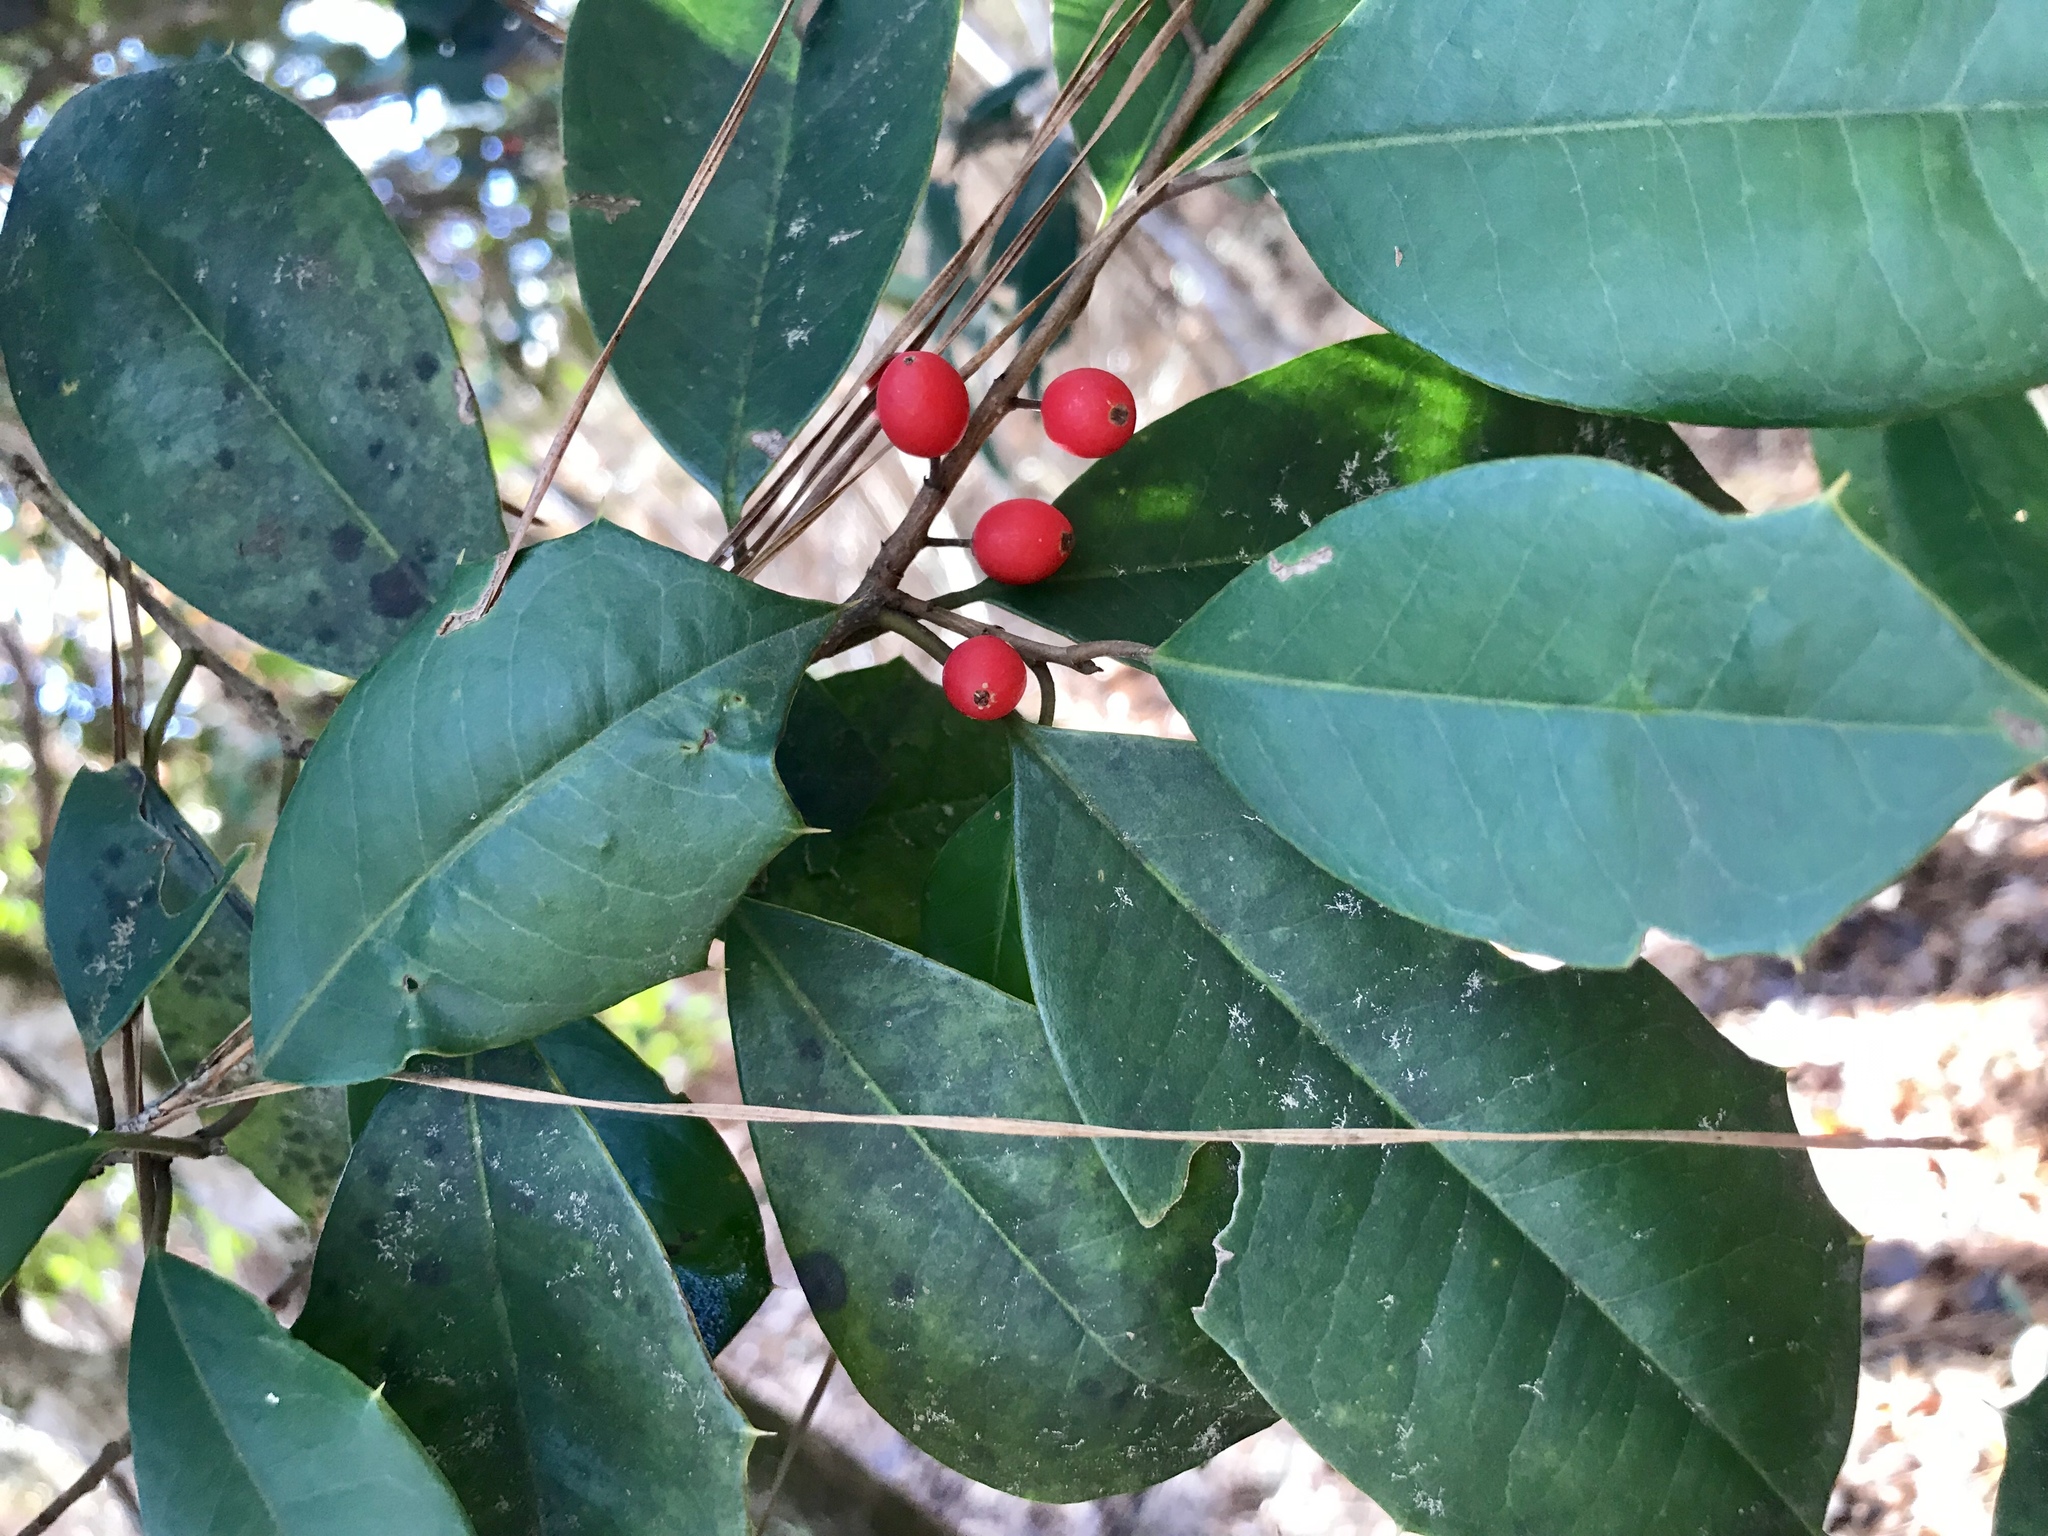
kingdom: Plantae
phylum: Tracheophyta
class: Magnoliopsida
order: Aquifoliales
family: Aquifoliaceae
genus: Ilex
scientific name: Ilex opaca
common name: American holly
